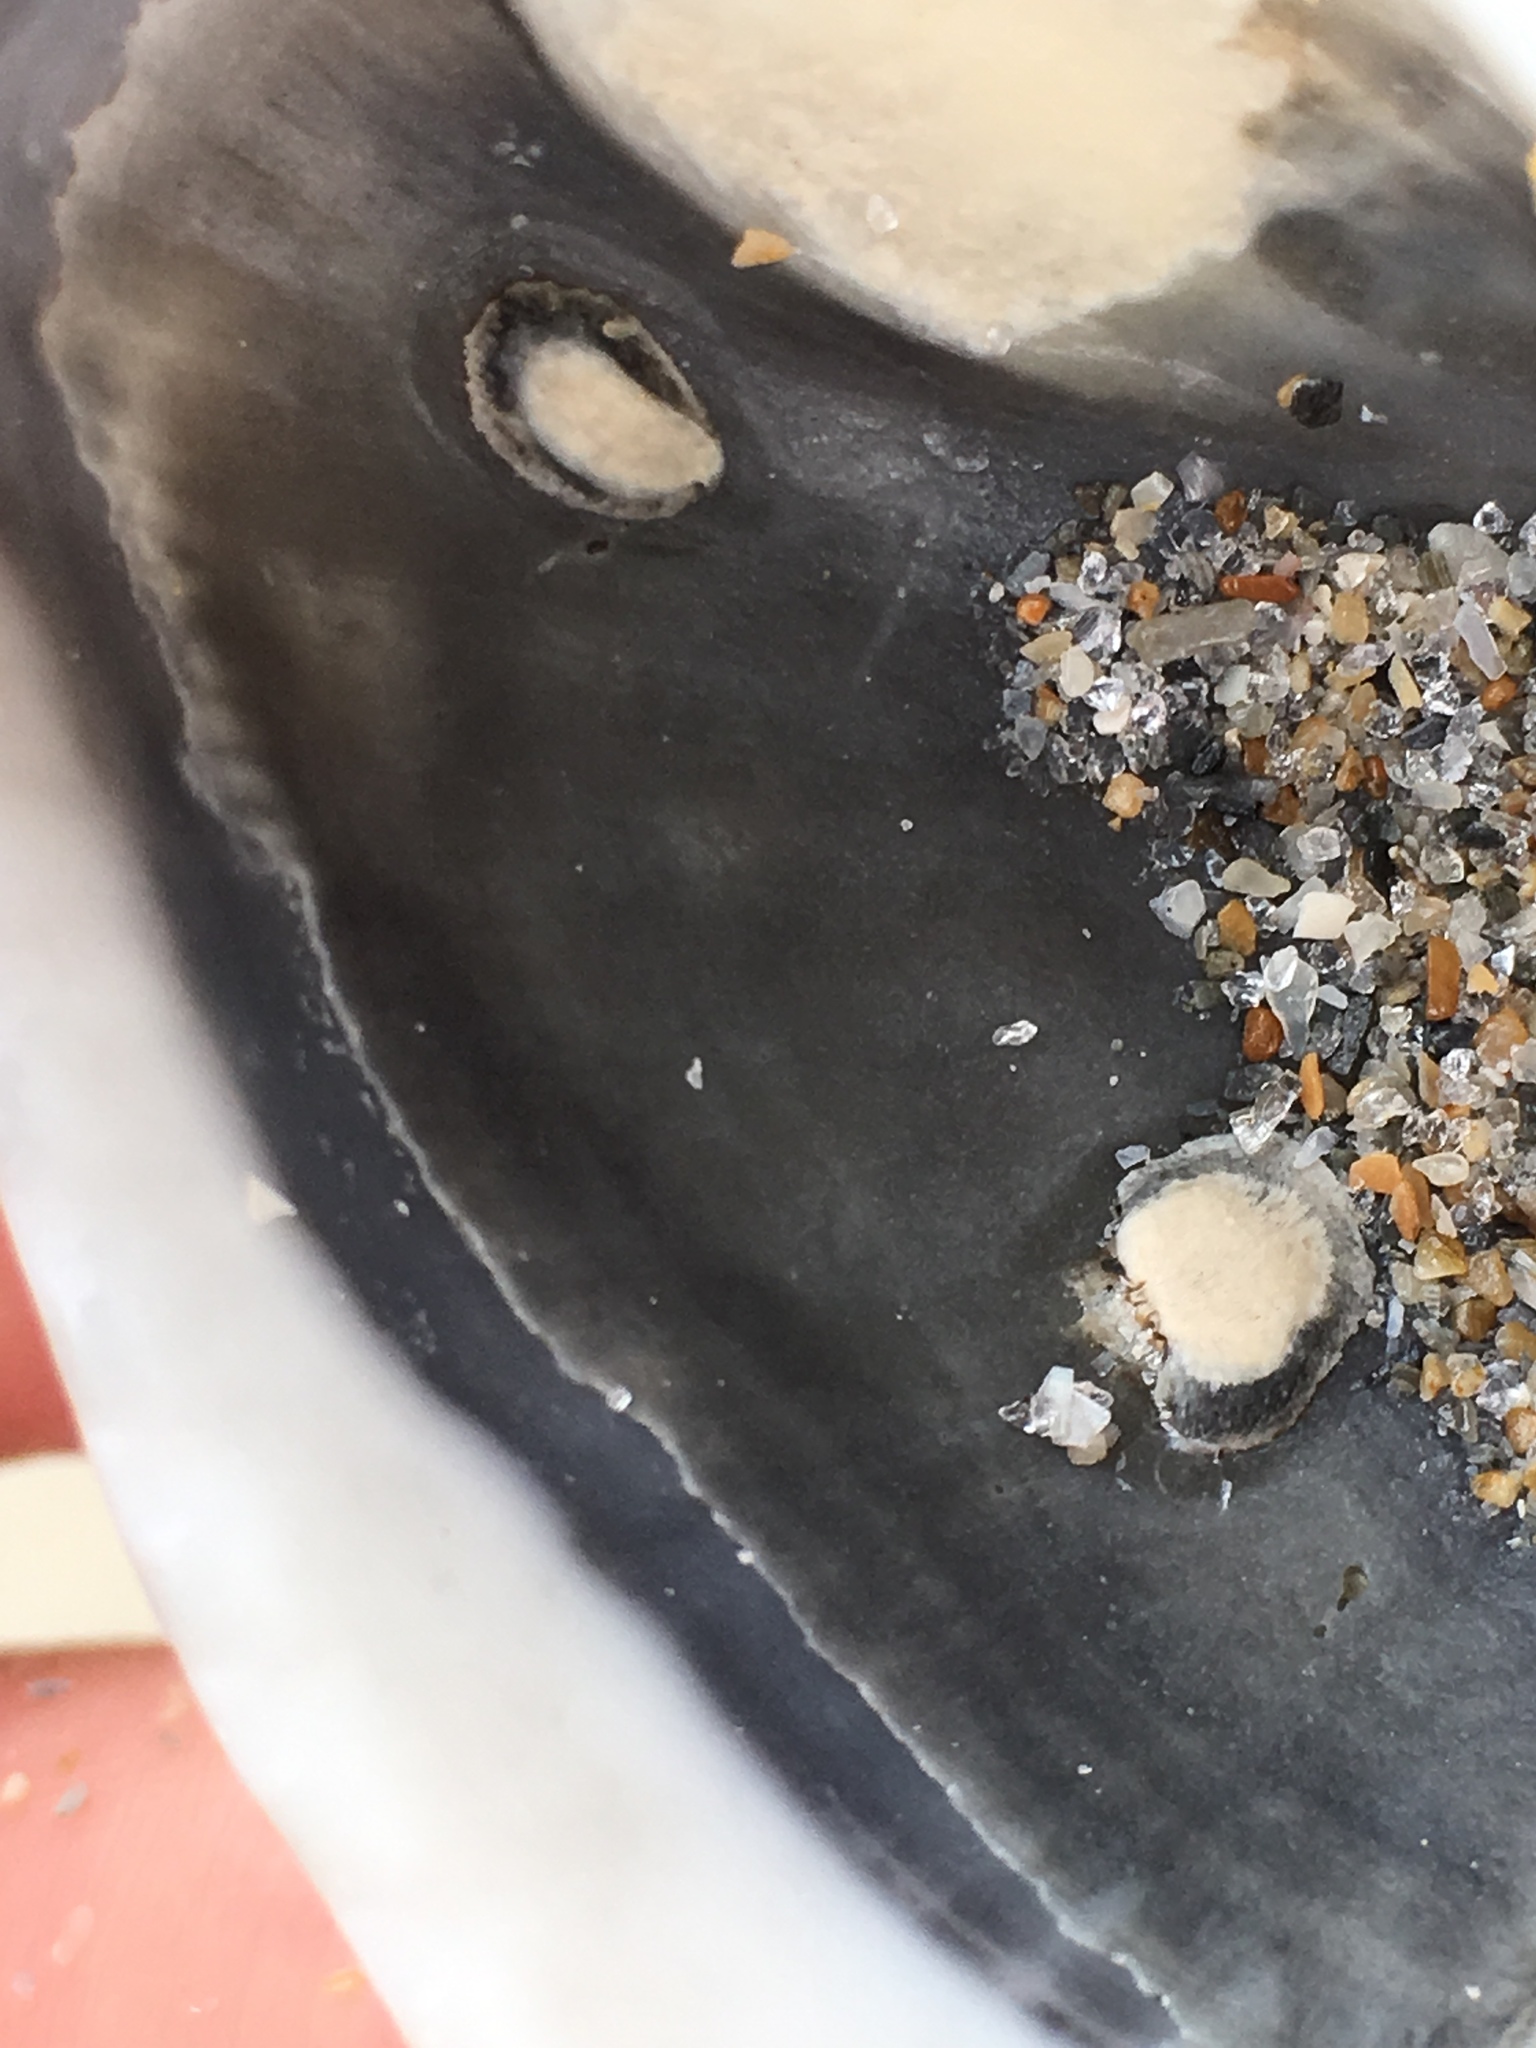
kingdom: Animalia
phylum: Mollusca
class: Bivalvia
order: Arcida
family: Noetiidae
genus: Noetia
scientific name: Noetia ponderosa
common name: Ponderous ark
